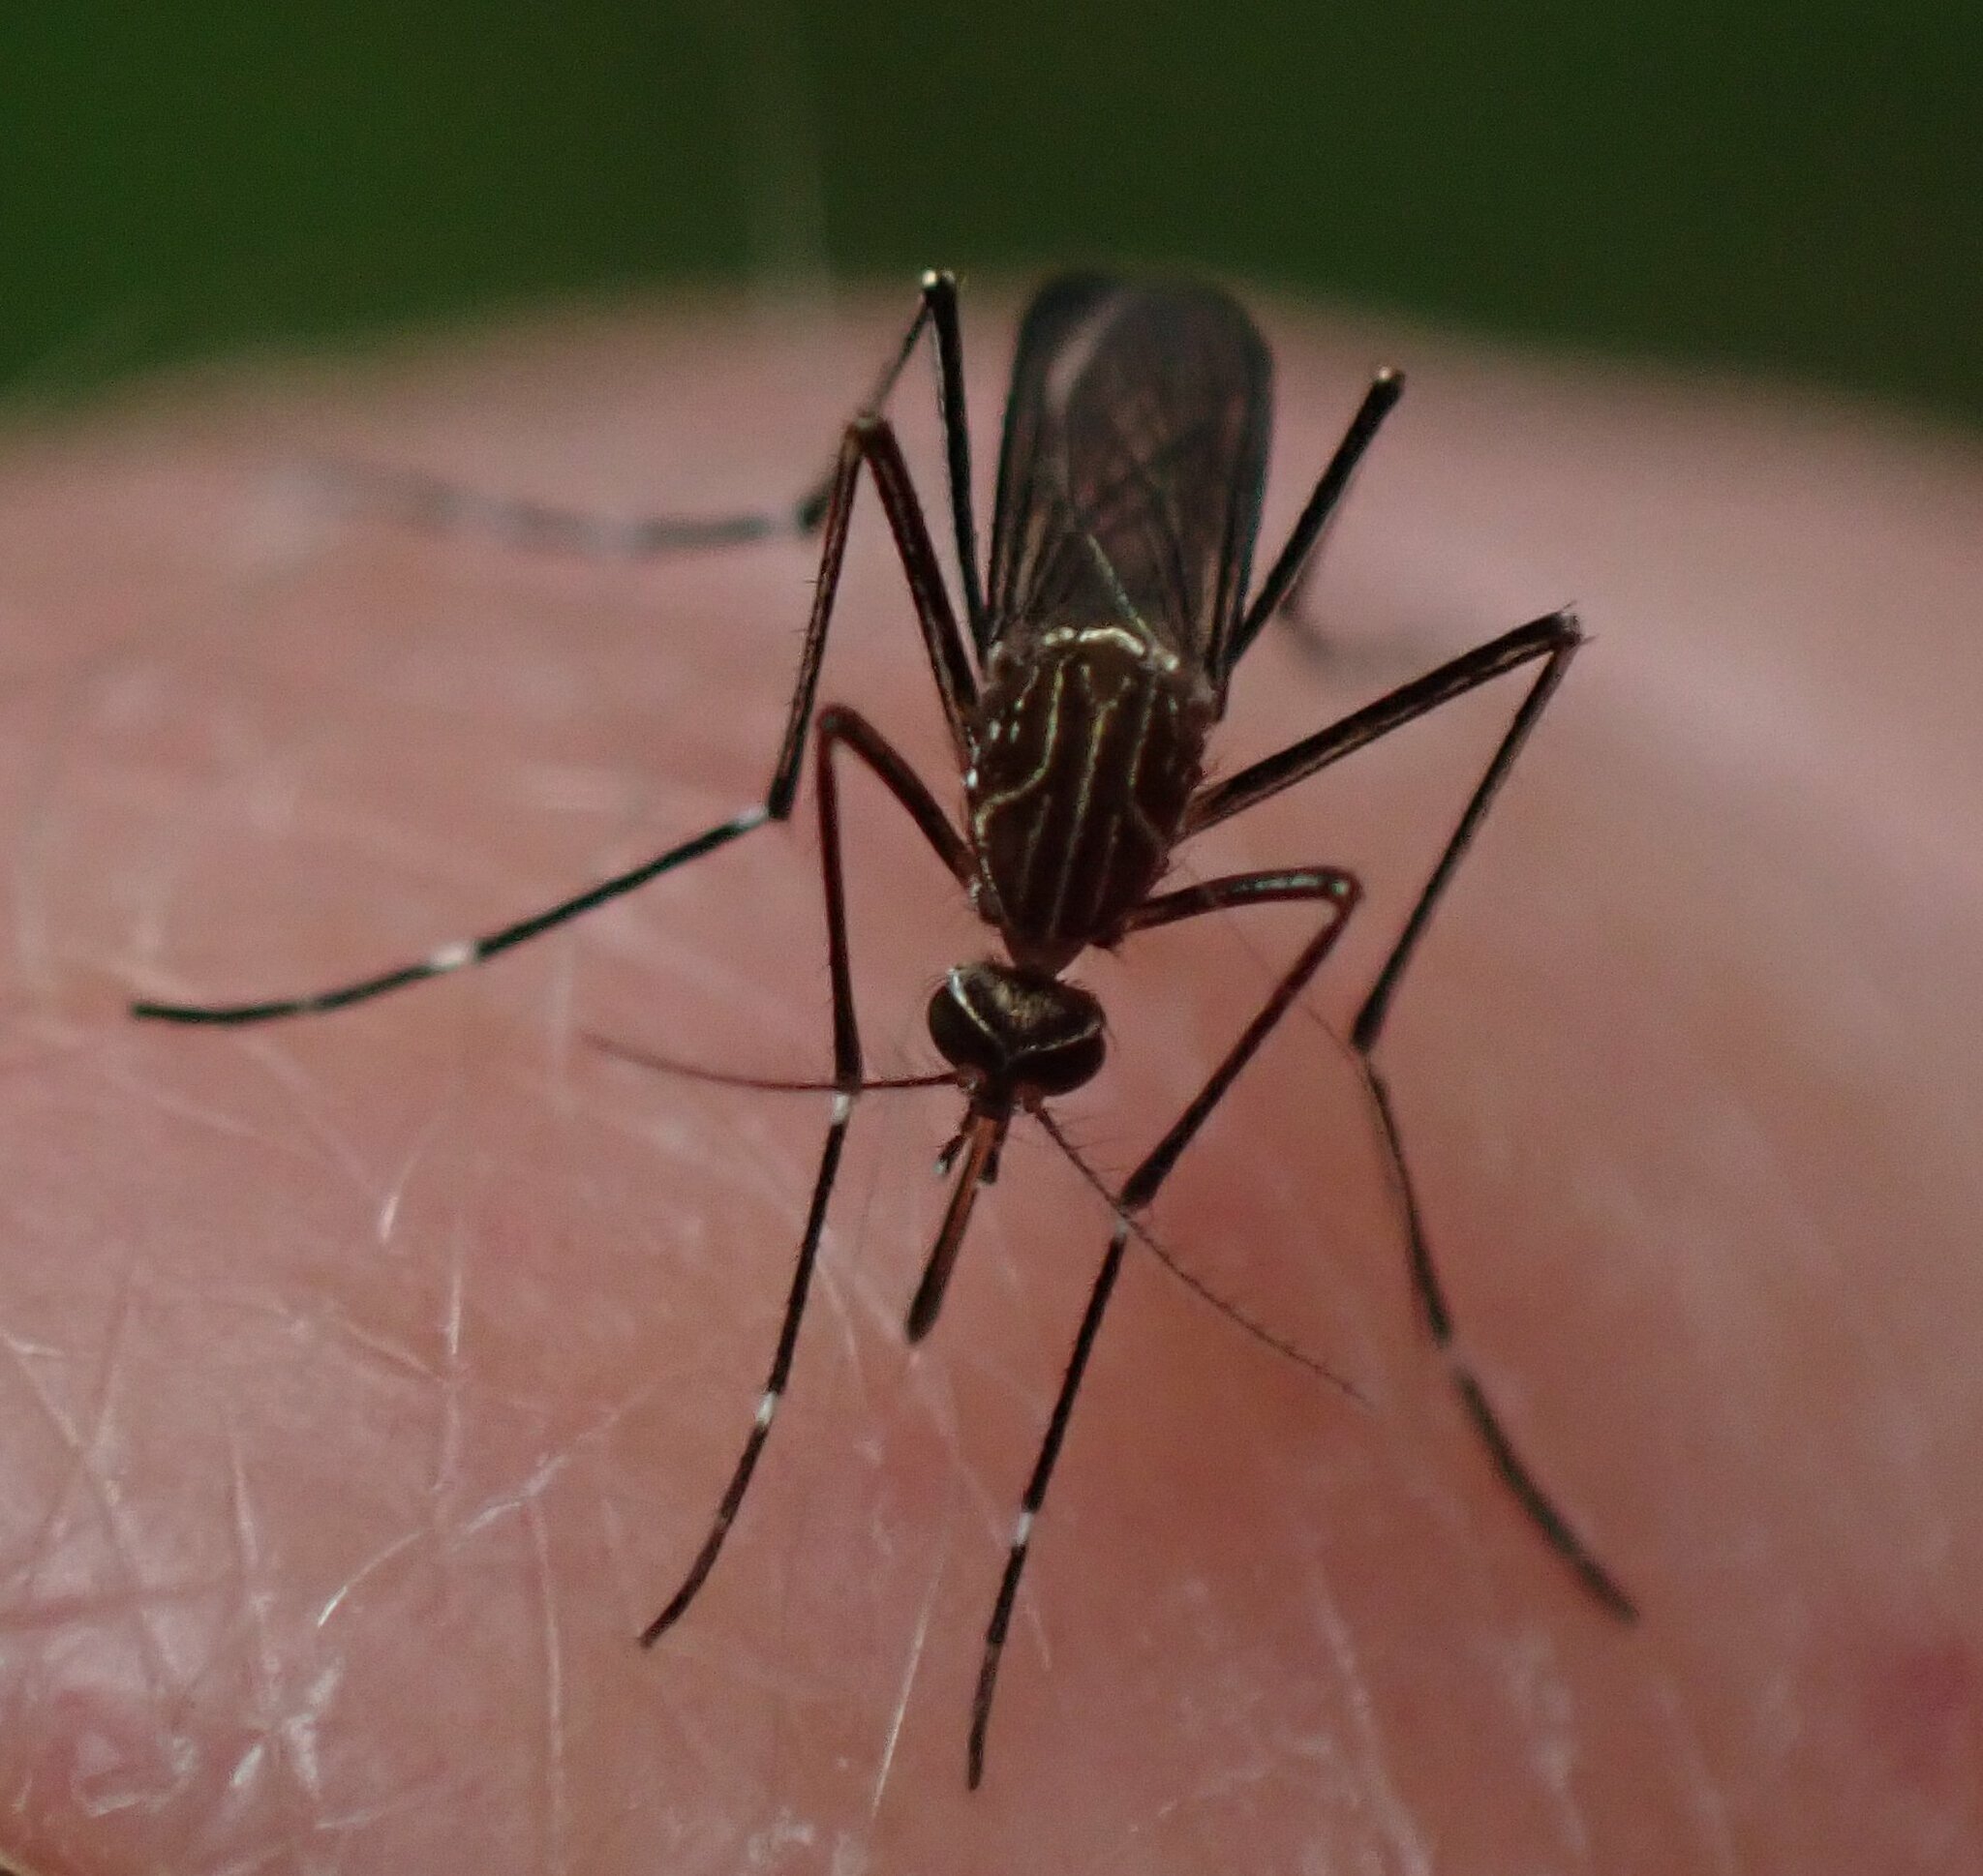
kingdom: Animalia
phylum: Arthropoda
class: Insecta
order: Diptera
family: Culicidae
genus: Aedes
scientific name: Aedes notoscriptus
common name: Australian backyard mosquito
